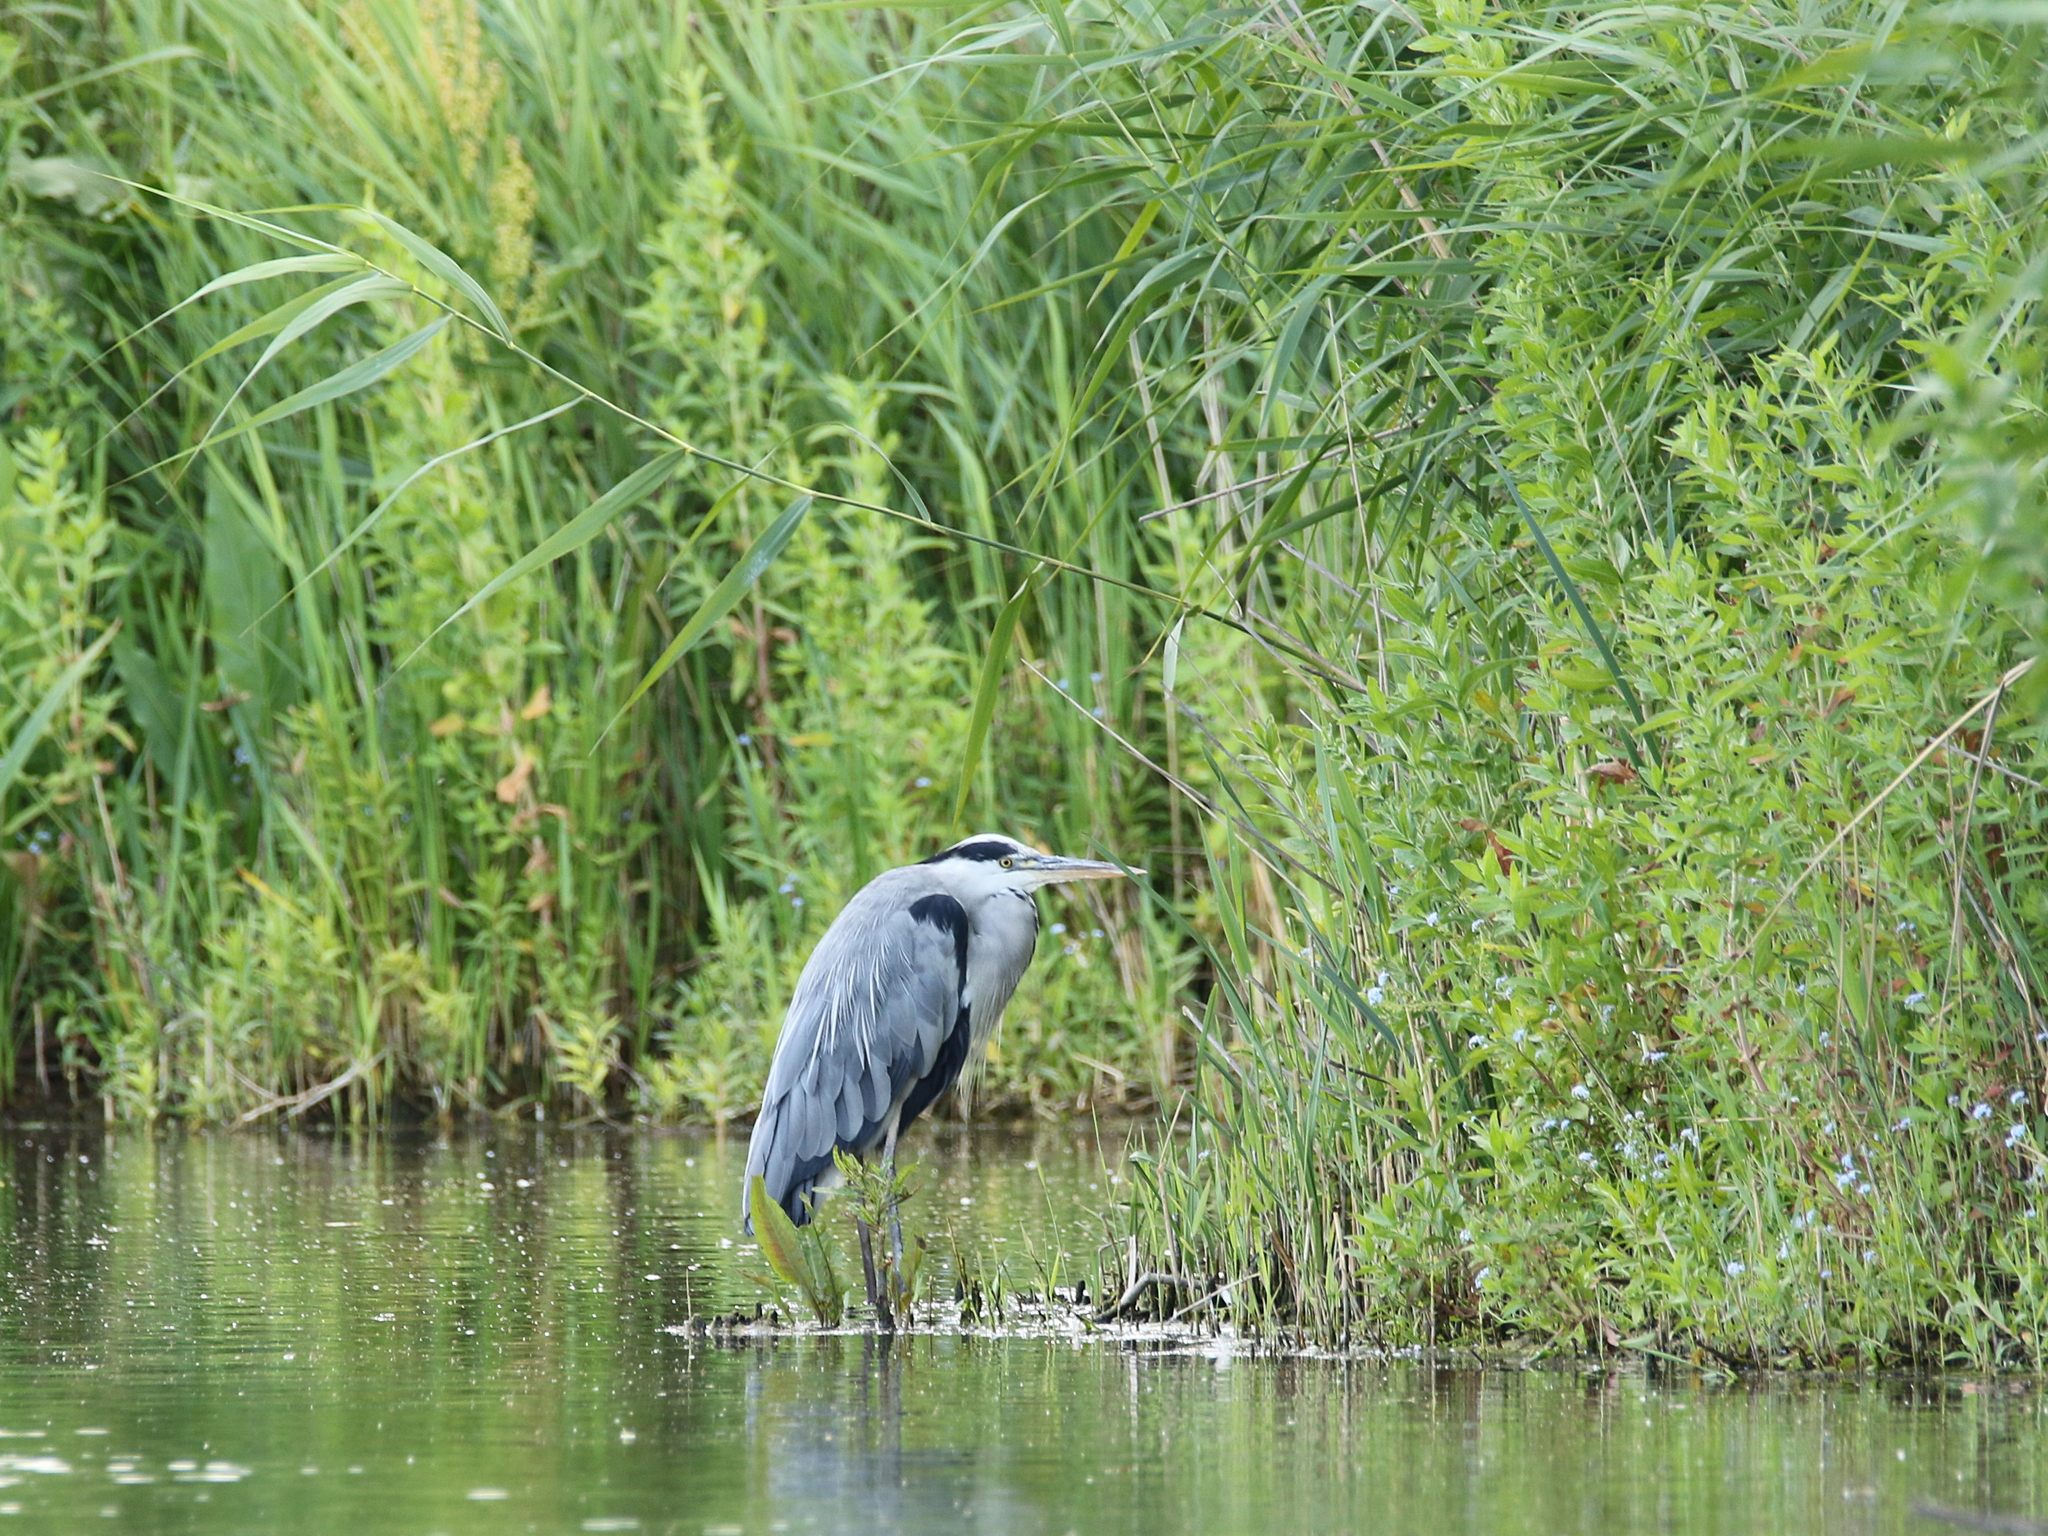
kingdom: Animalia
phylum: Chordata
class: Aves
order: Pelecaniformes
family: Ardeidae
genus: Ardea
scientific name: Ardea cinerea
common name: Grey heron
